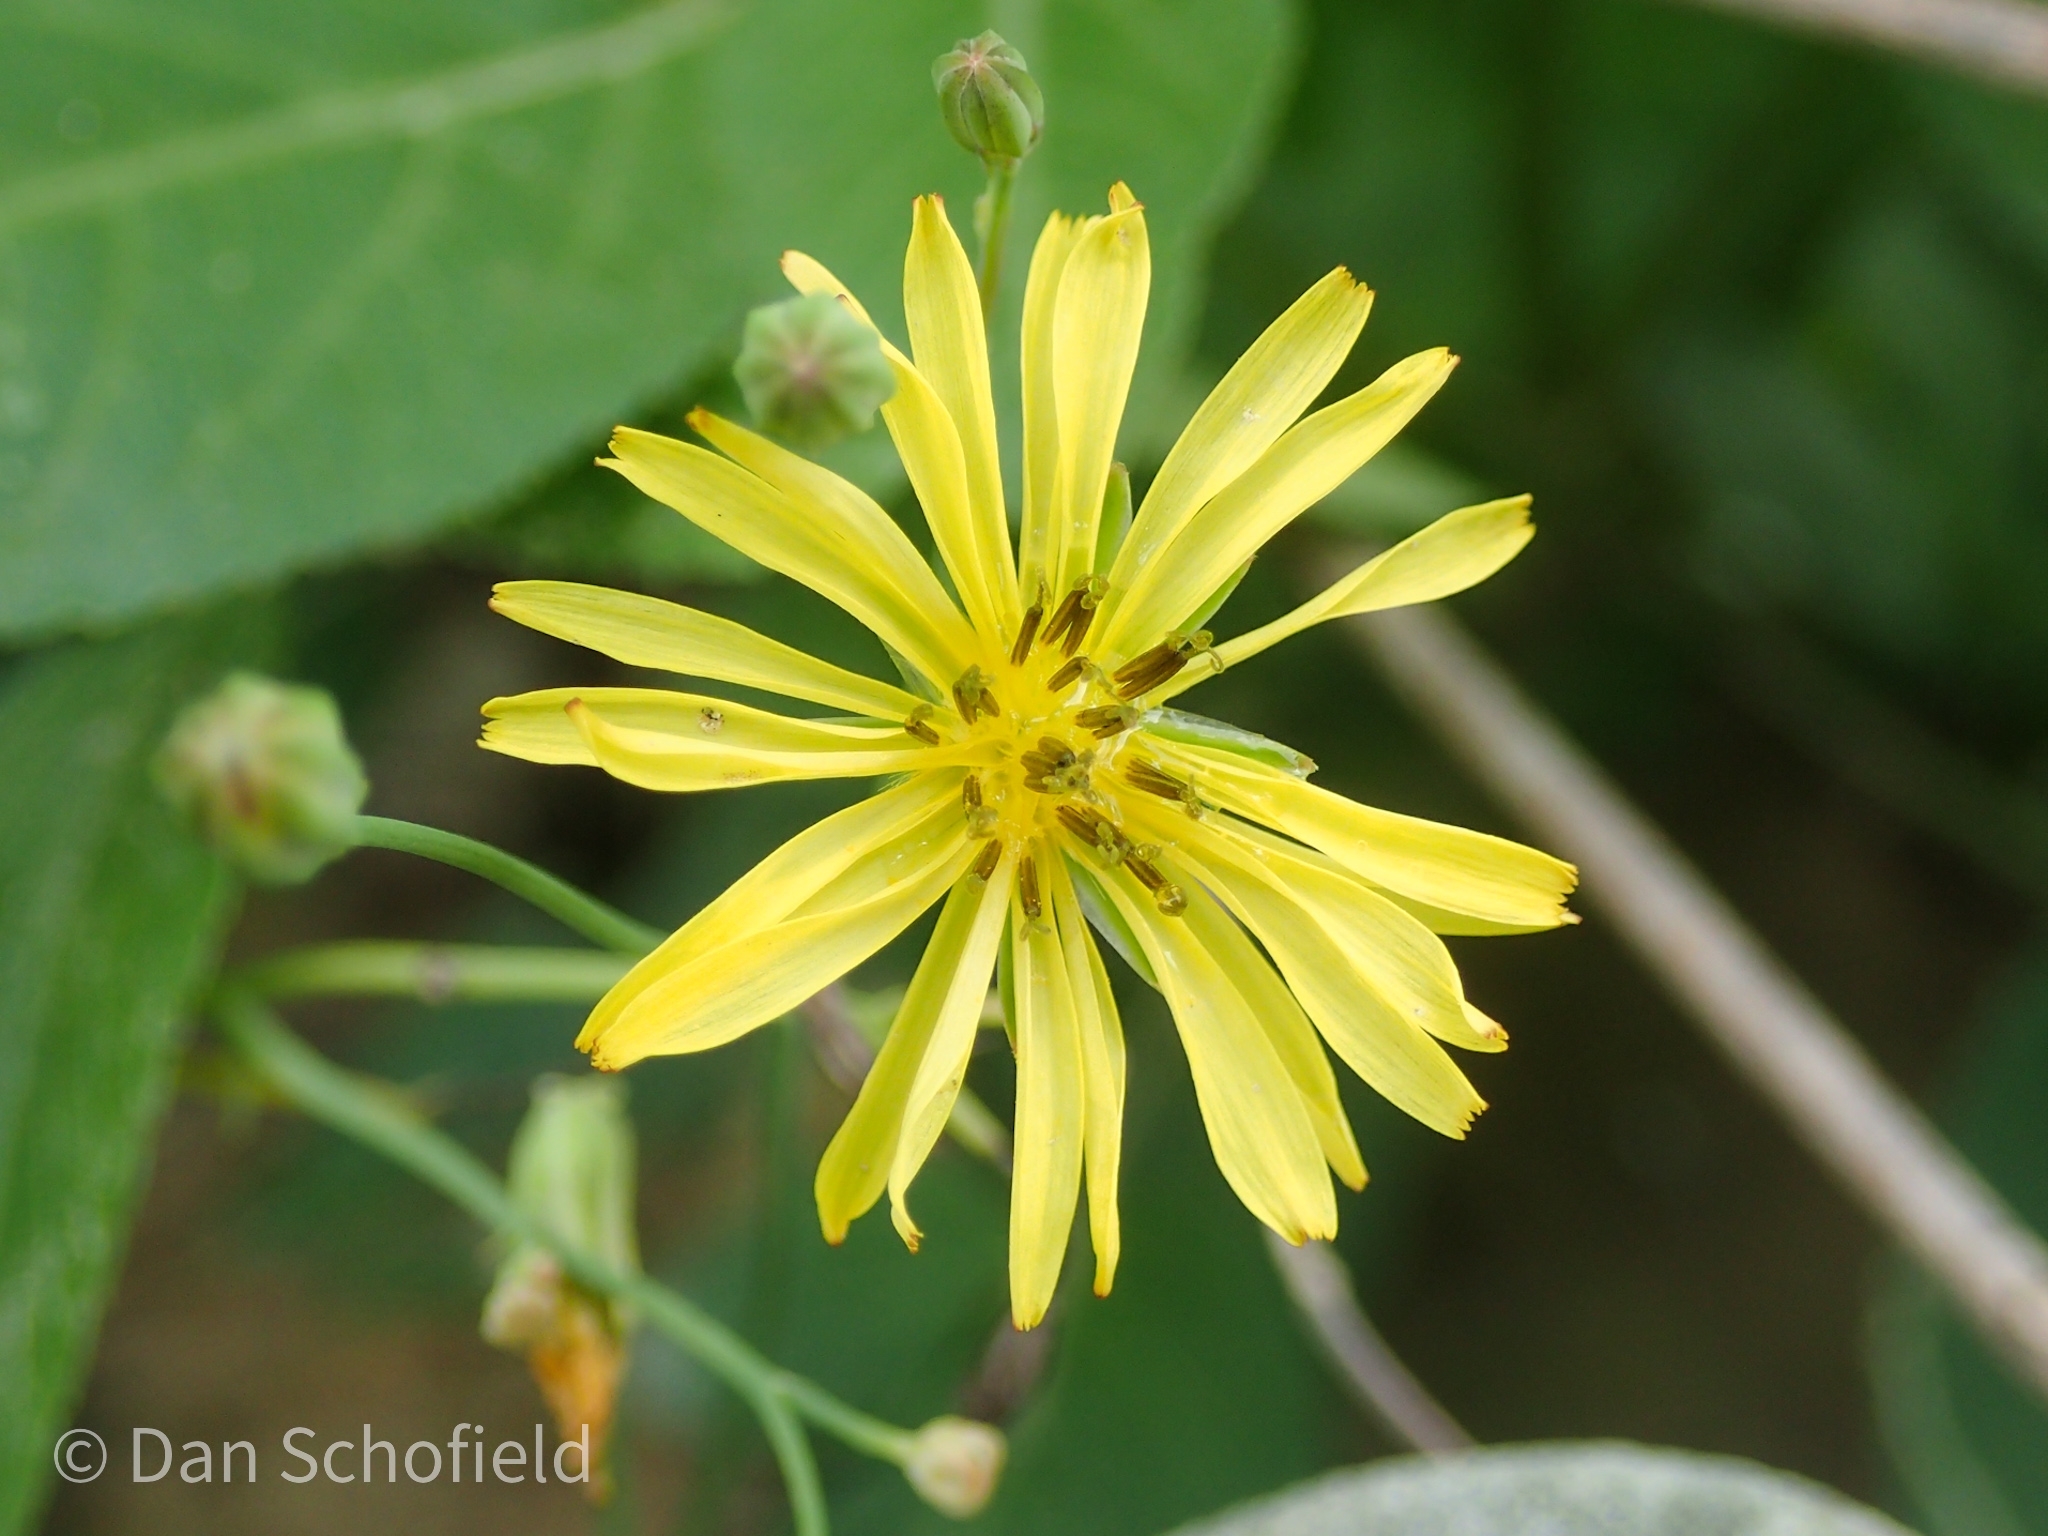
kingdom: Plantae
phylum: Tracheophyta
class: Magnoliopsida
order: Asterales
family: Asteraceae
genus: Ixeris
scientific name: Ixeris chinensis
